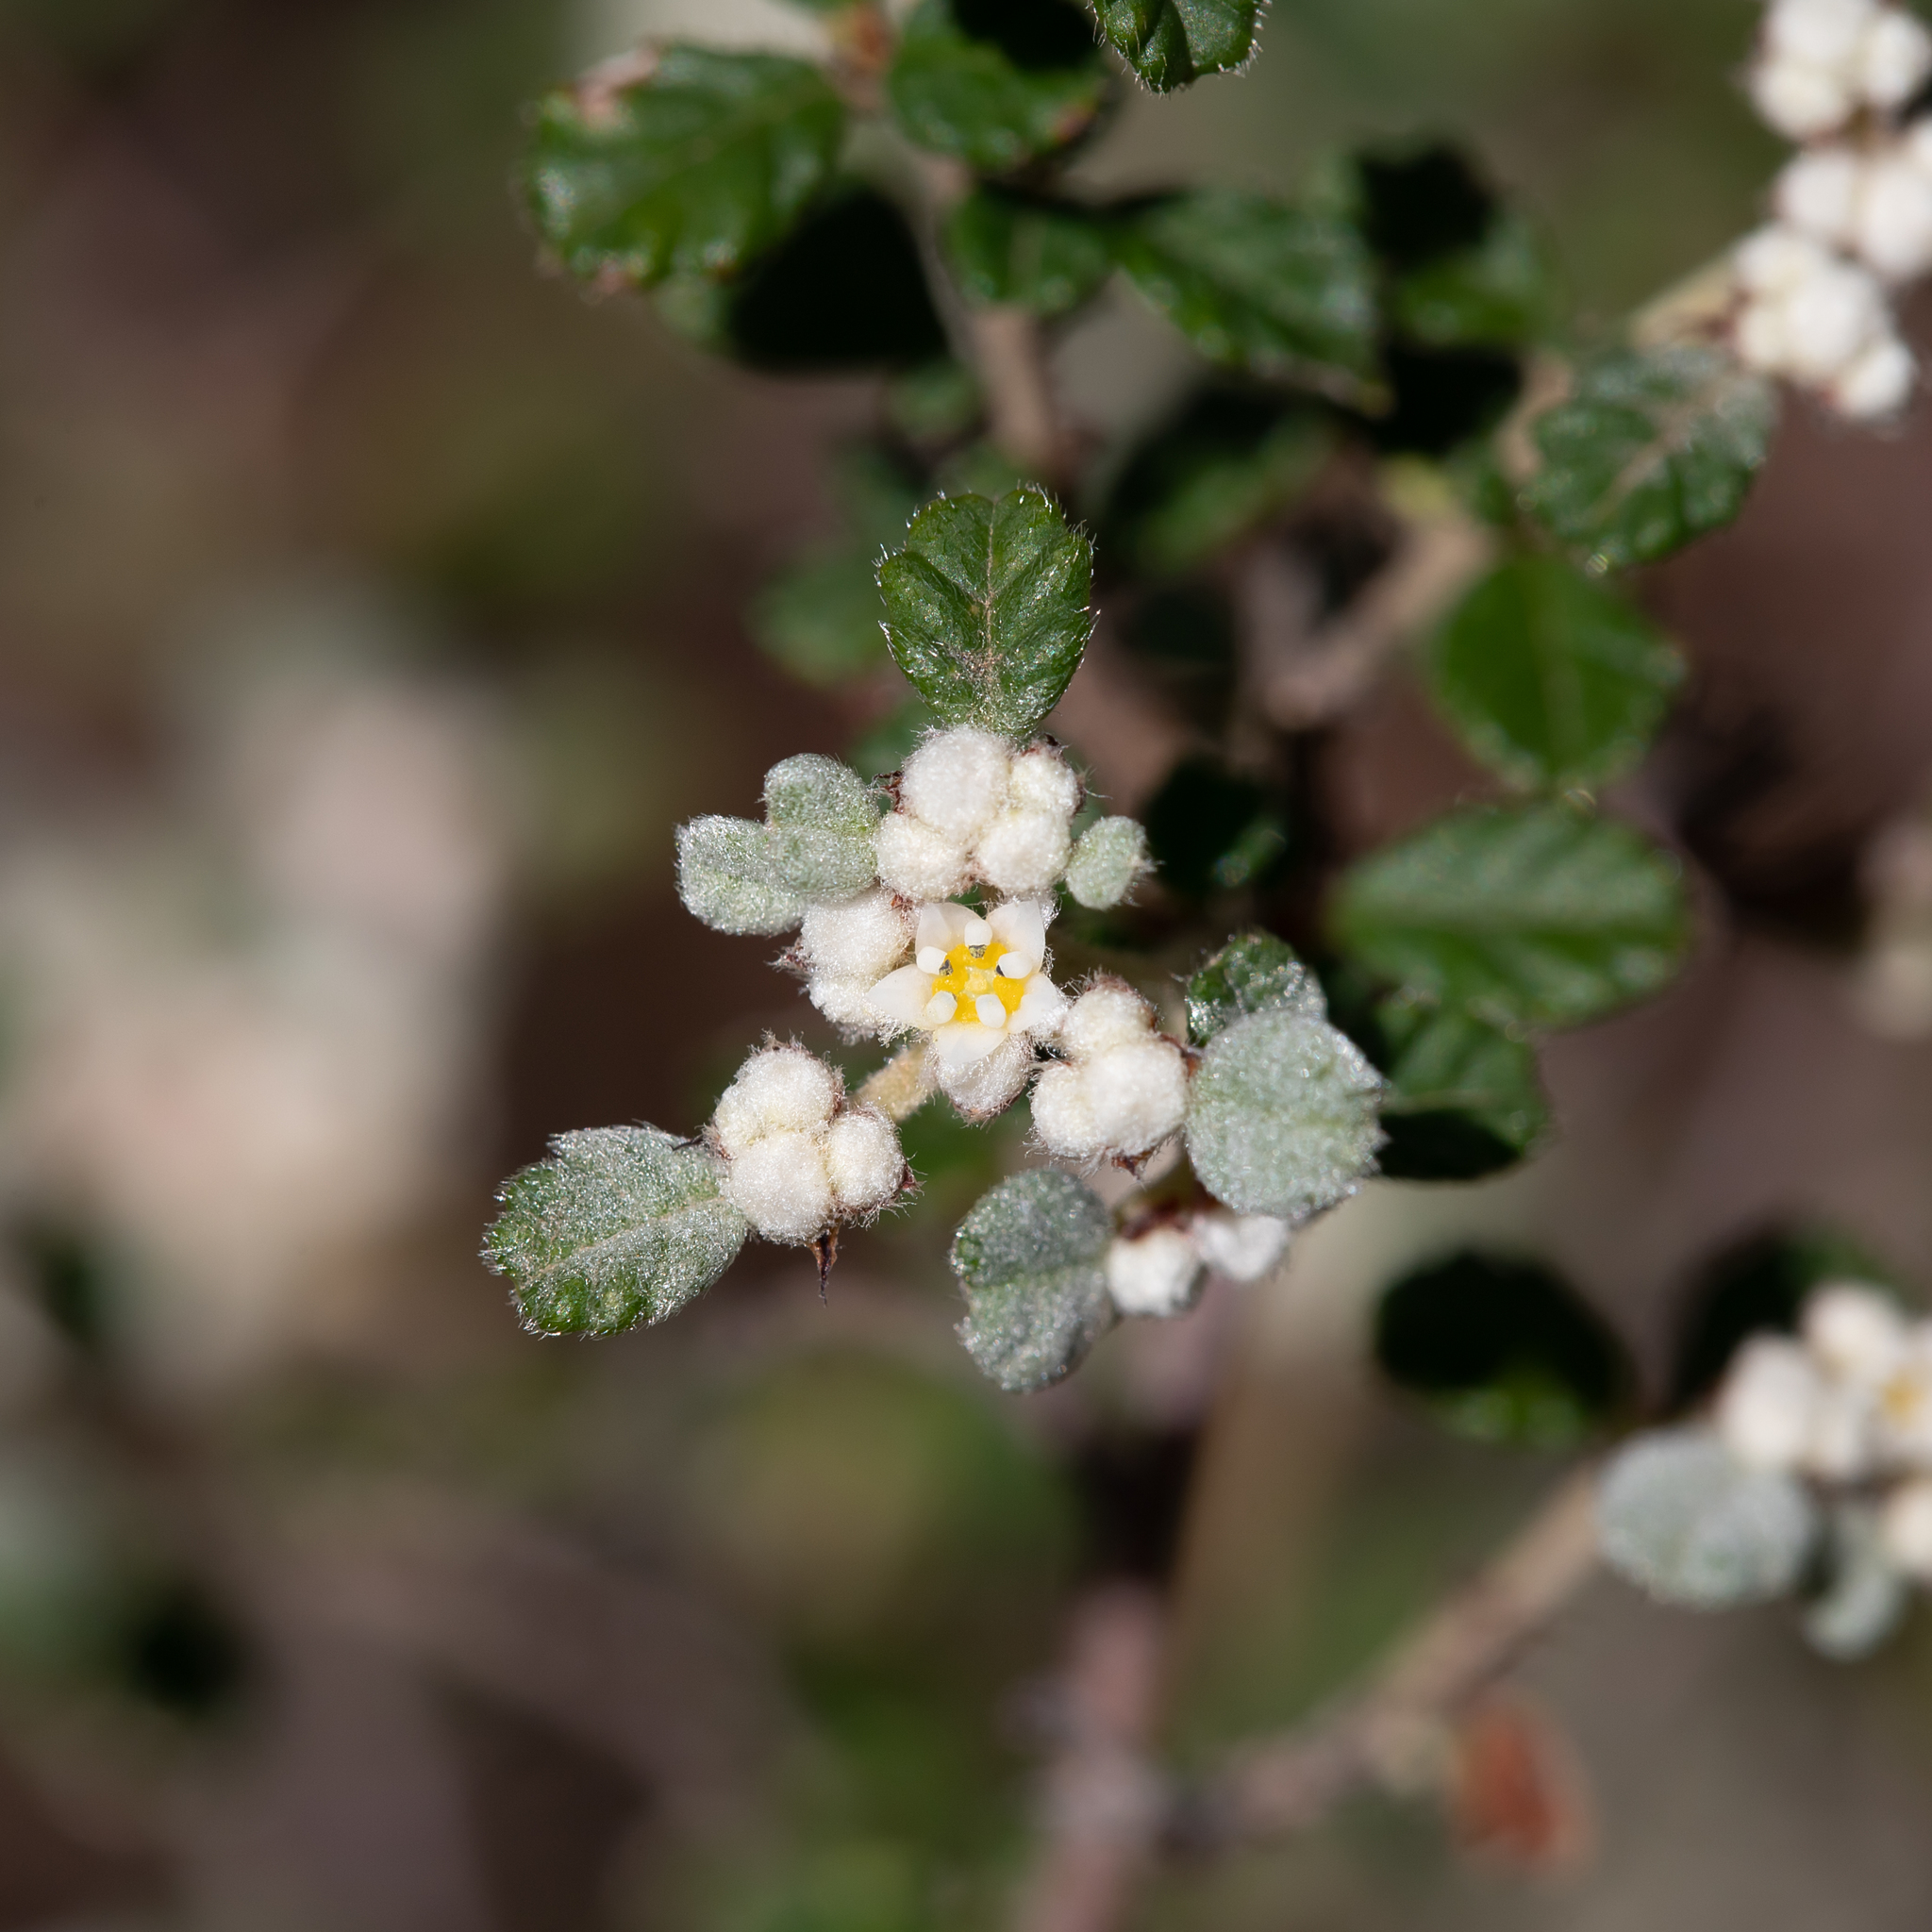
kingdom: Plantae
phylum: Tracheophyta
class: Magnoliopsida
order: Rosales
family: Rhamnaceae
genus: Spyridium
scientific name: Spyridium parvifolium
